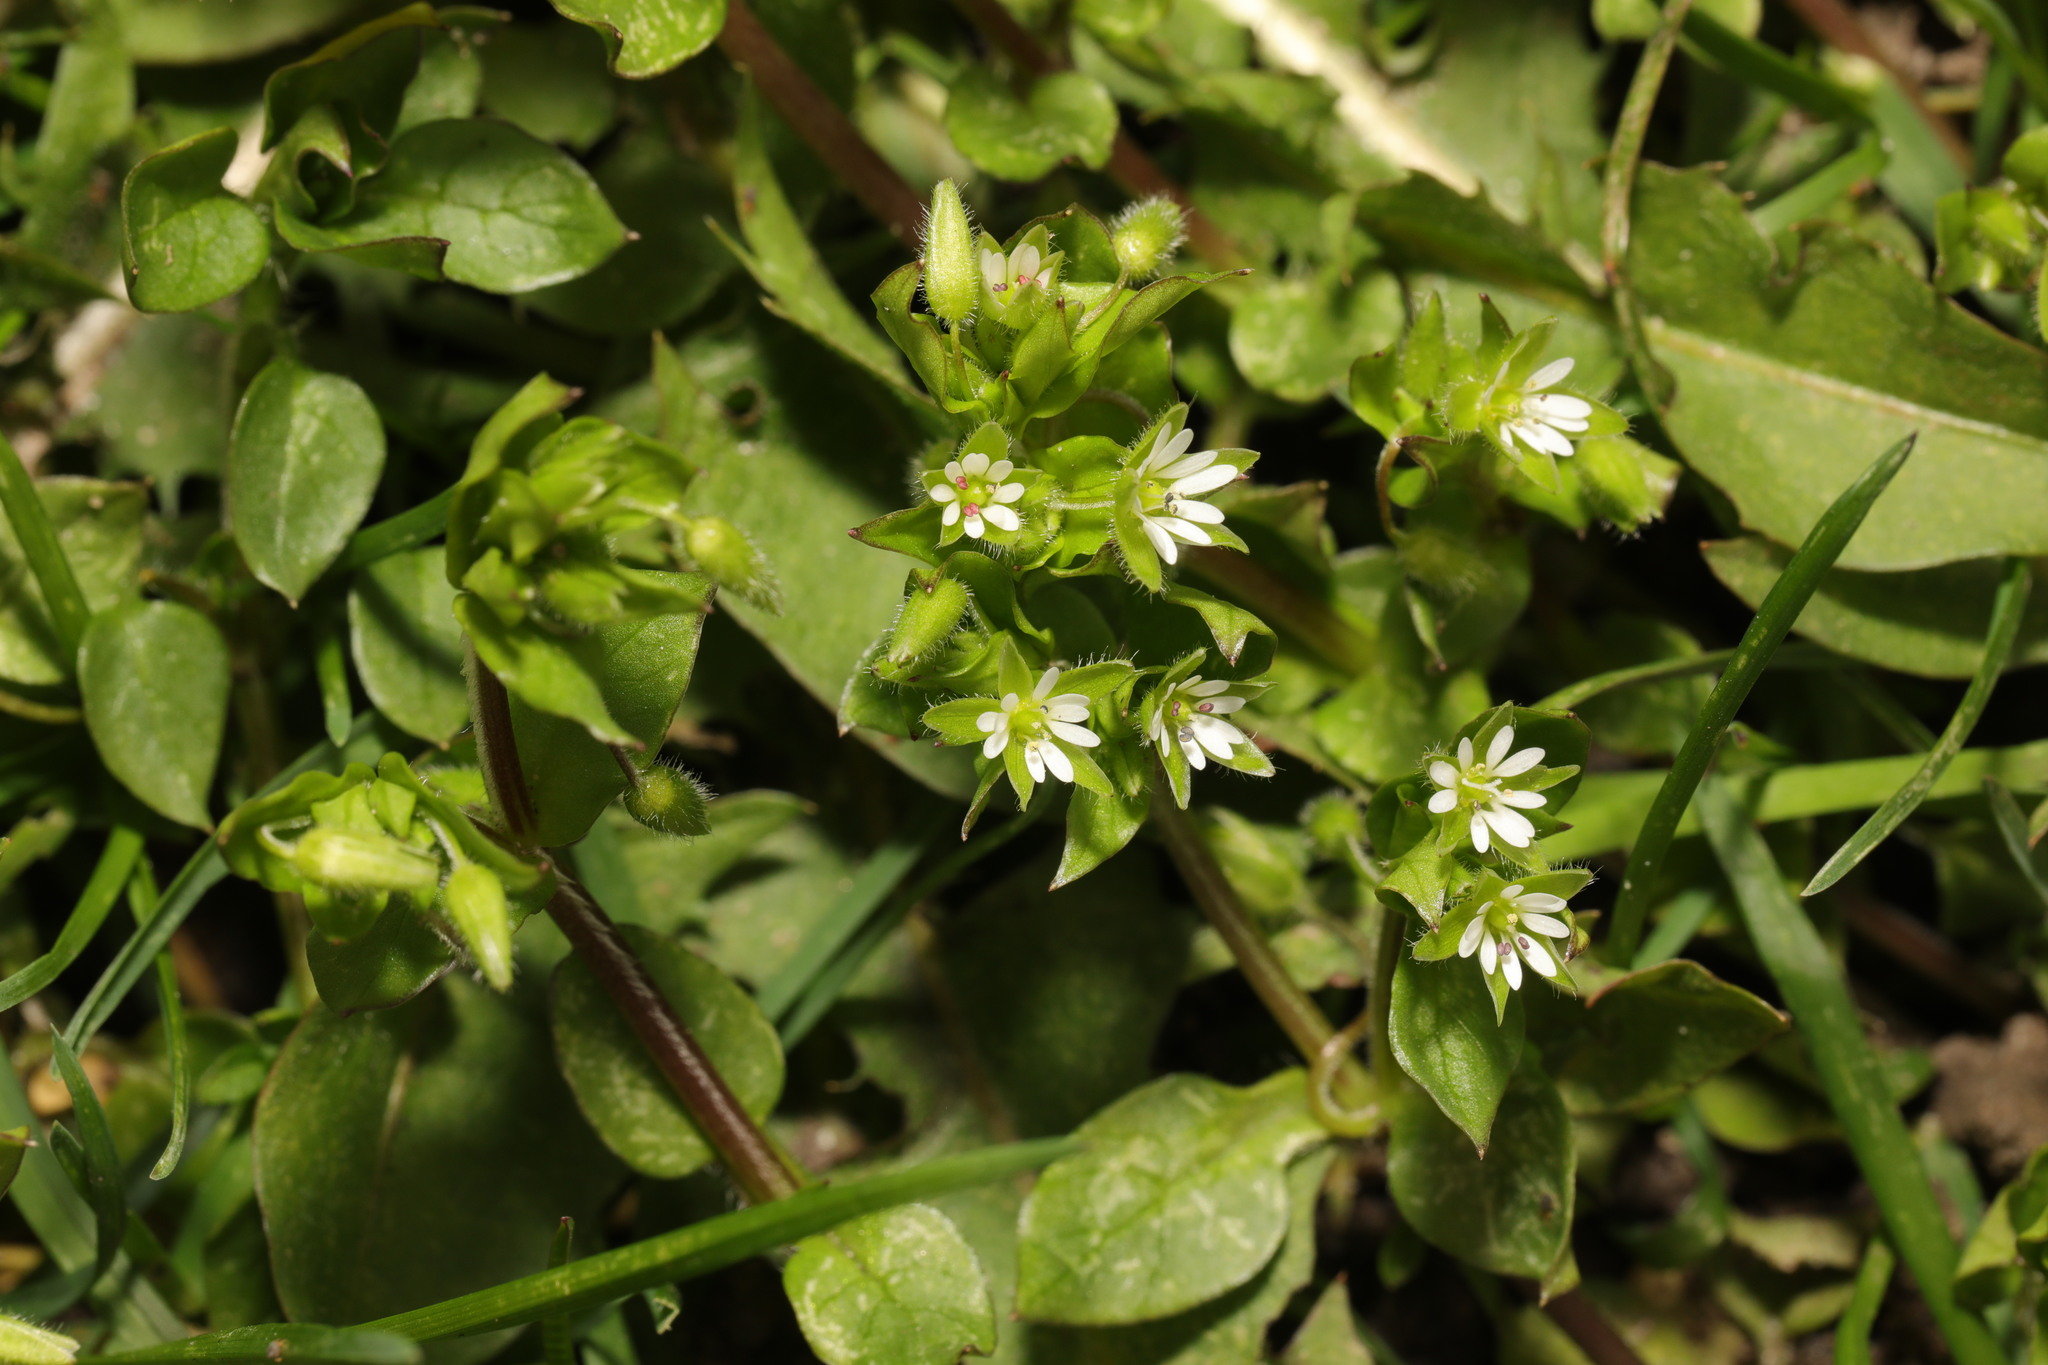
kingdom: Plantae
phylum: Tracheophyta
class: Magnoliopsida
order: Caryophyllales
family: Caryophyllaceae
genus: Stellaria
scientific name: Stellaria media
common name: Common chickweed
